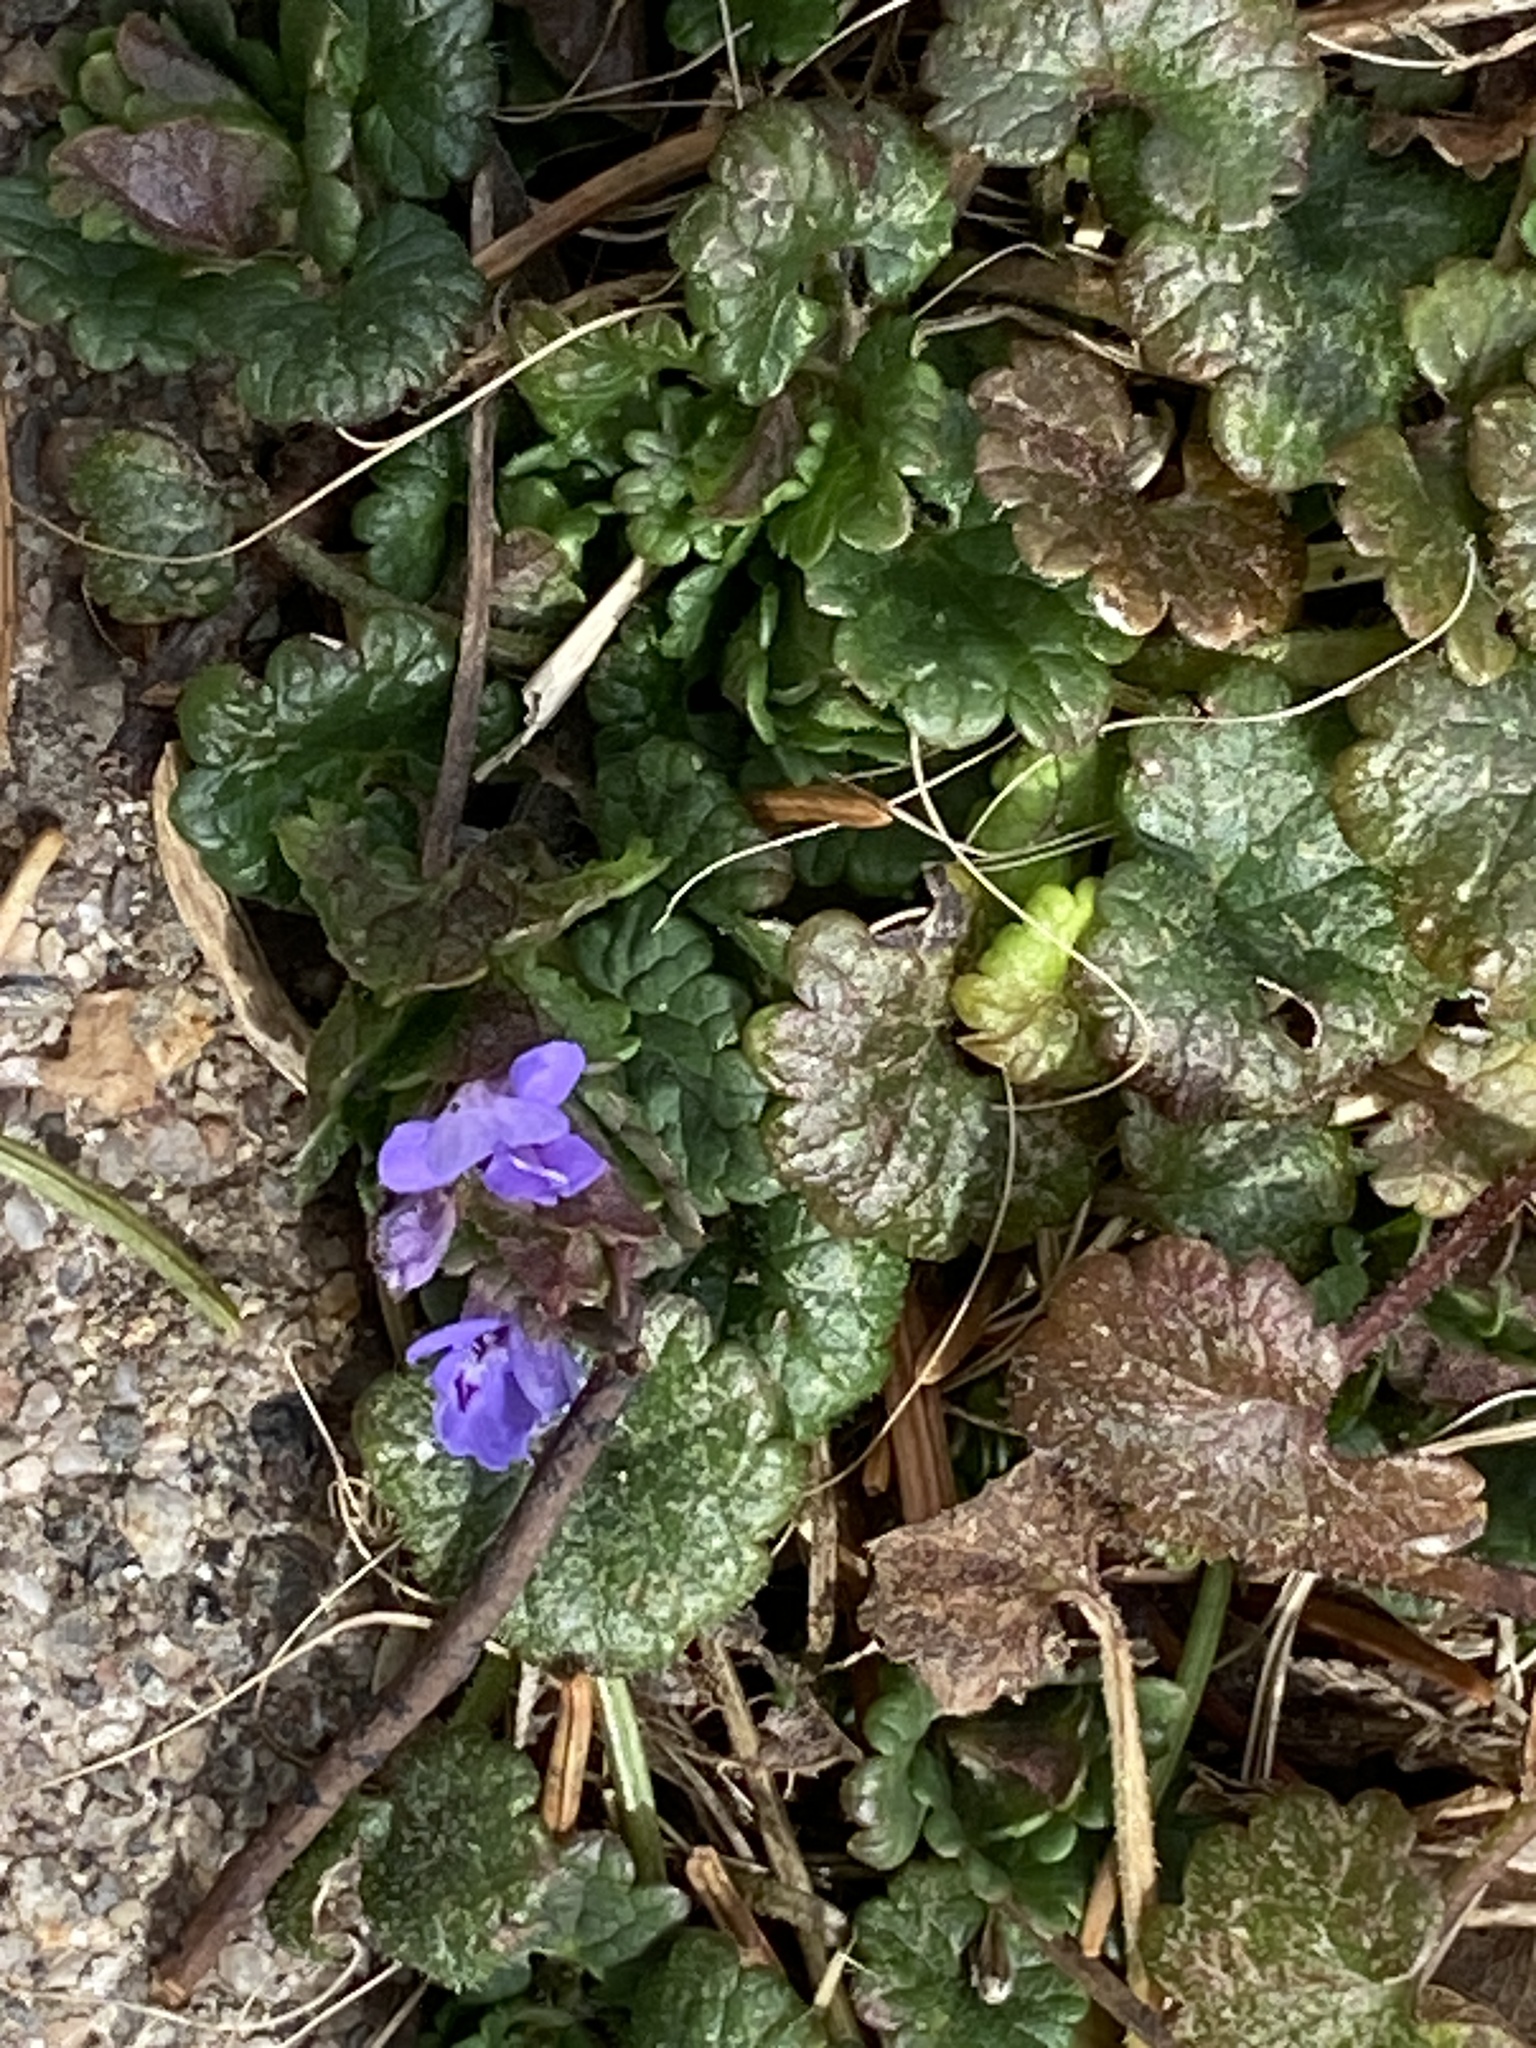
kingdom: Plantae
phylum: Tracheophyta
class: Magnoliopsida
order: Lamiales
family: Lamiaceae
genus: Glechoma
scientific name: Glechoma hederacea
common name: Ground ivy
